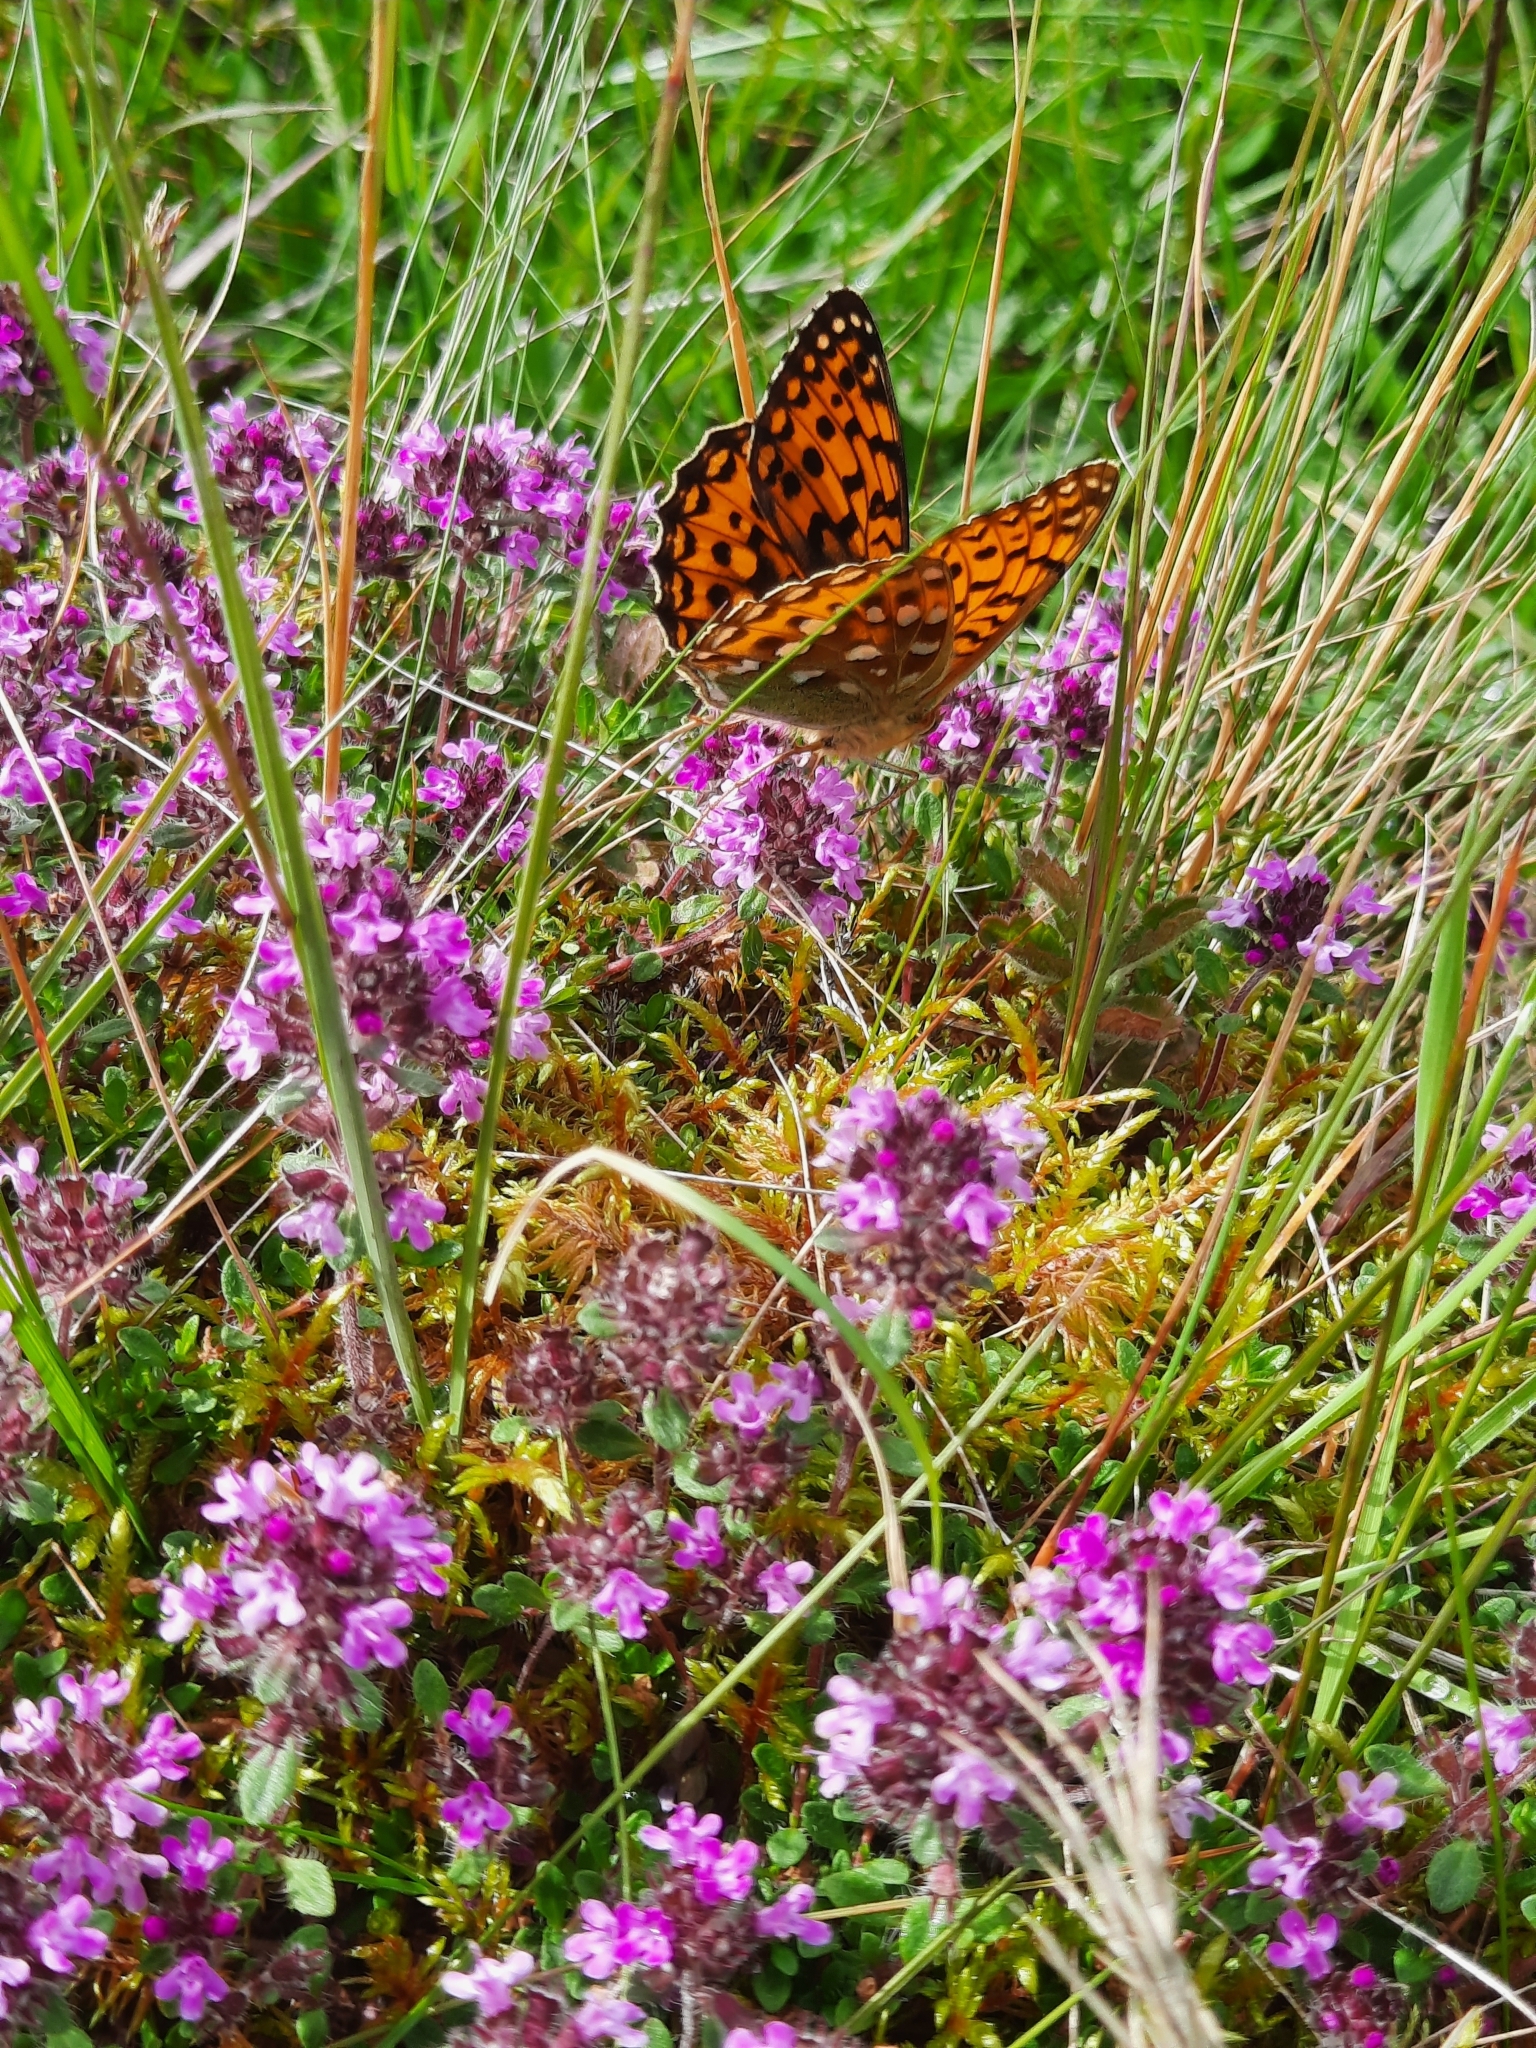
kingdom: Animalia
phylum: Arthropoda
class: Insecta
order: Lepidoptera
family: Nymphalidae
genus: Speyeria
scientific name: Speyeria aglaja
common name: Dark green fritillary
